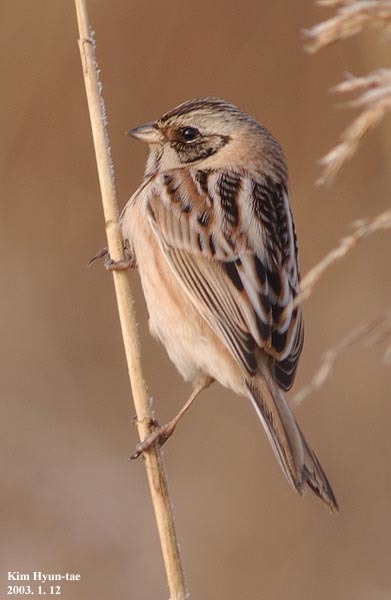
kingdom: Animalia
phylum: Chordata
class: Aves
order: Passeriformes
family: Emberizidae
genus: Emberiza
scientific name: Emberiza yessoensis
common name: Japanese reed bunting
